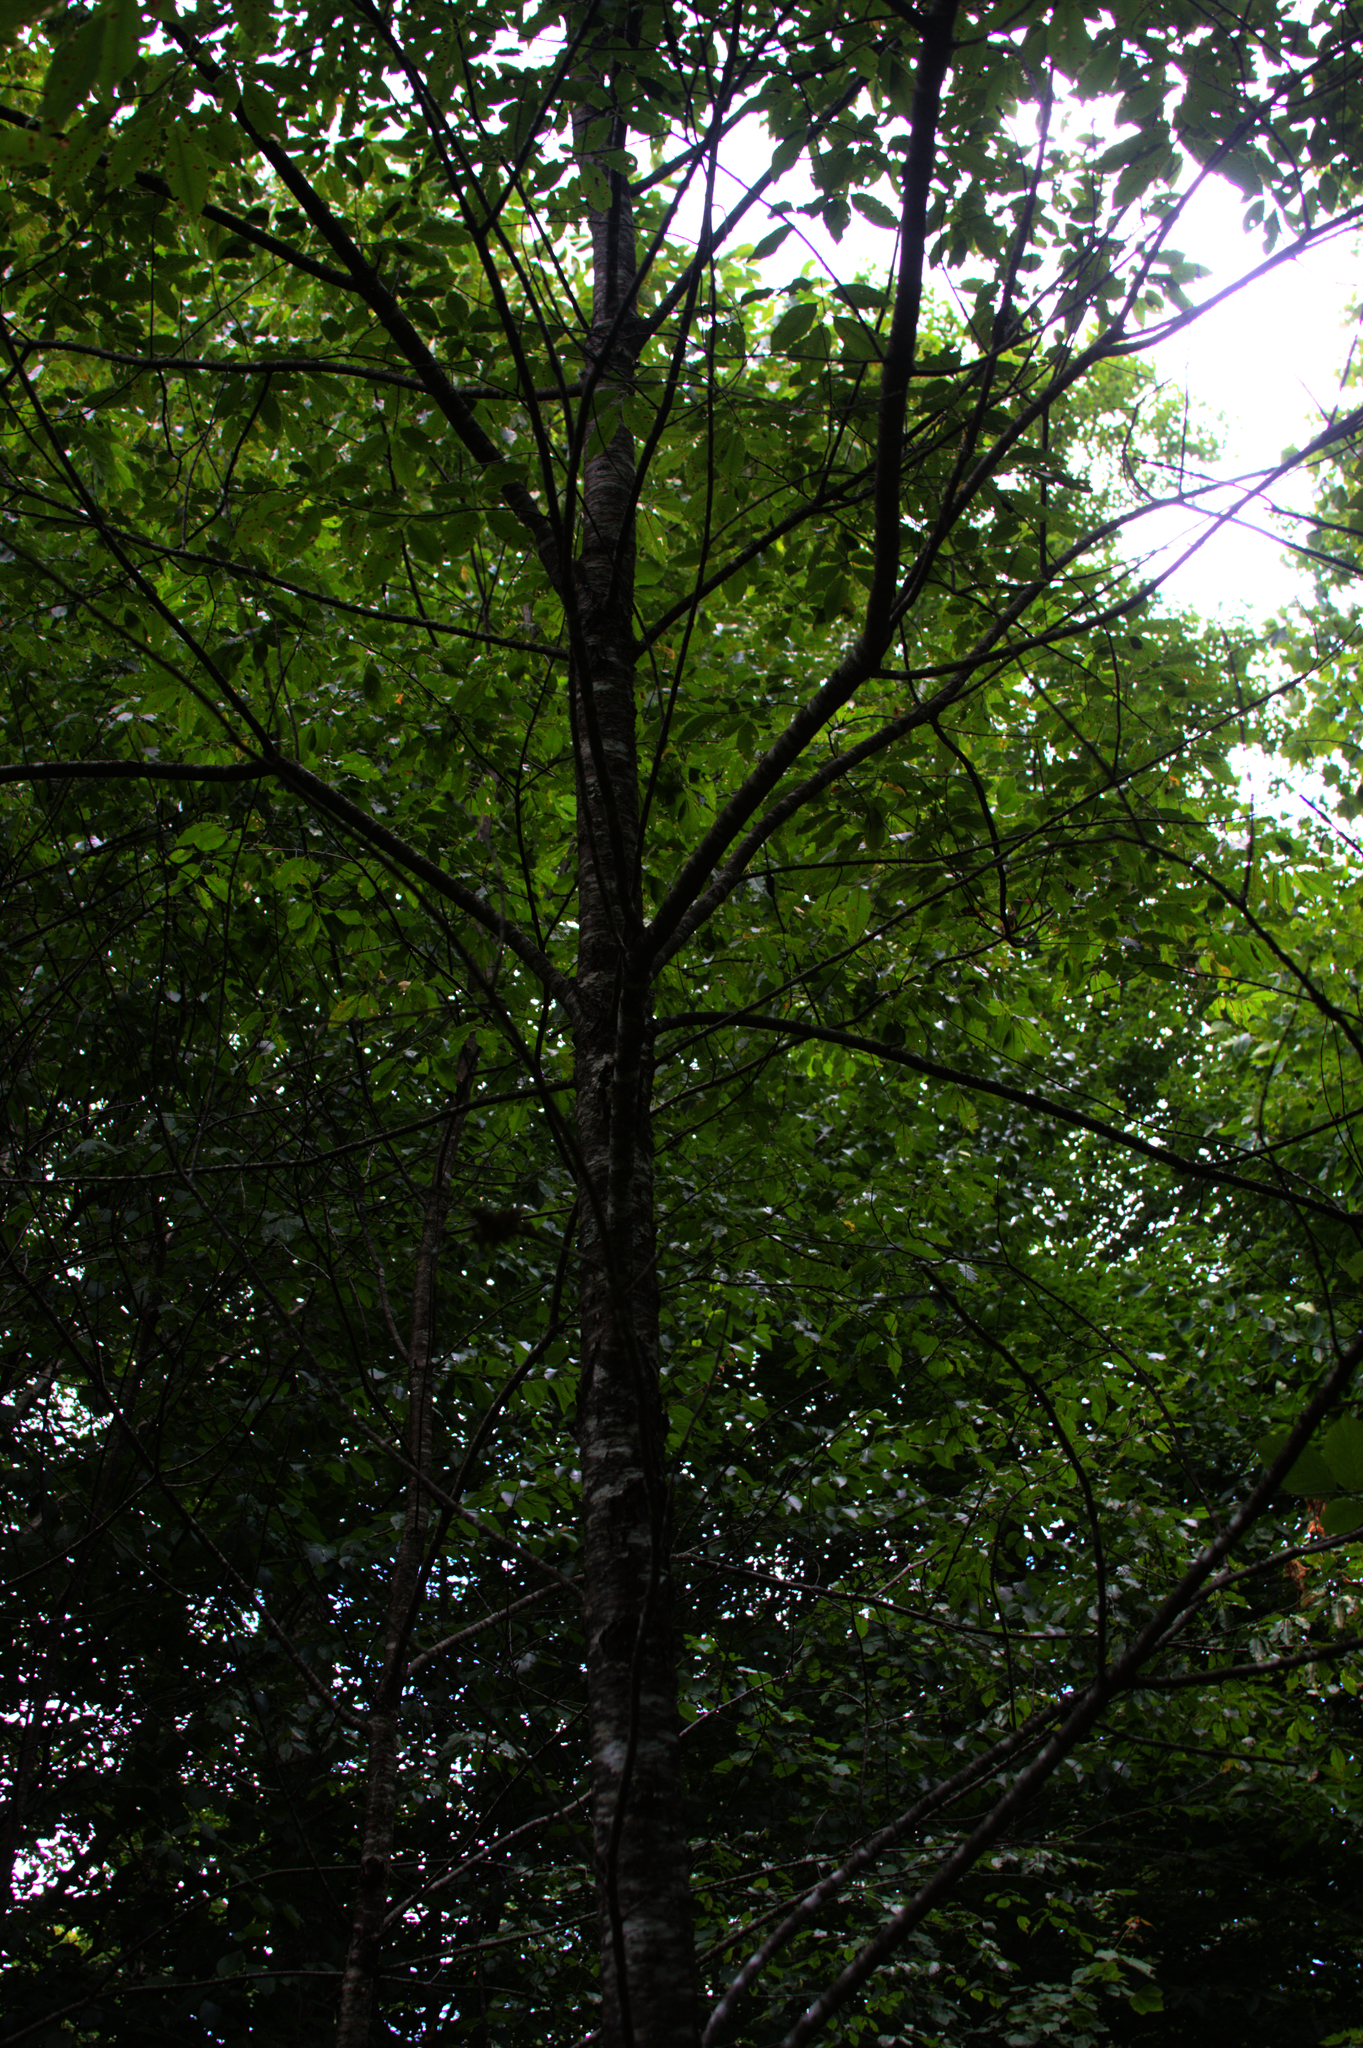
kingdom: Plantae
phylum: Tracheophyta
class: Magnoliopsida
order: Rosales
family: Rosaceae
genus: Prunus
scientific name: Prunus serotina
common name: Black cherry
